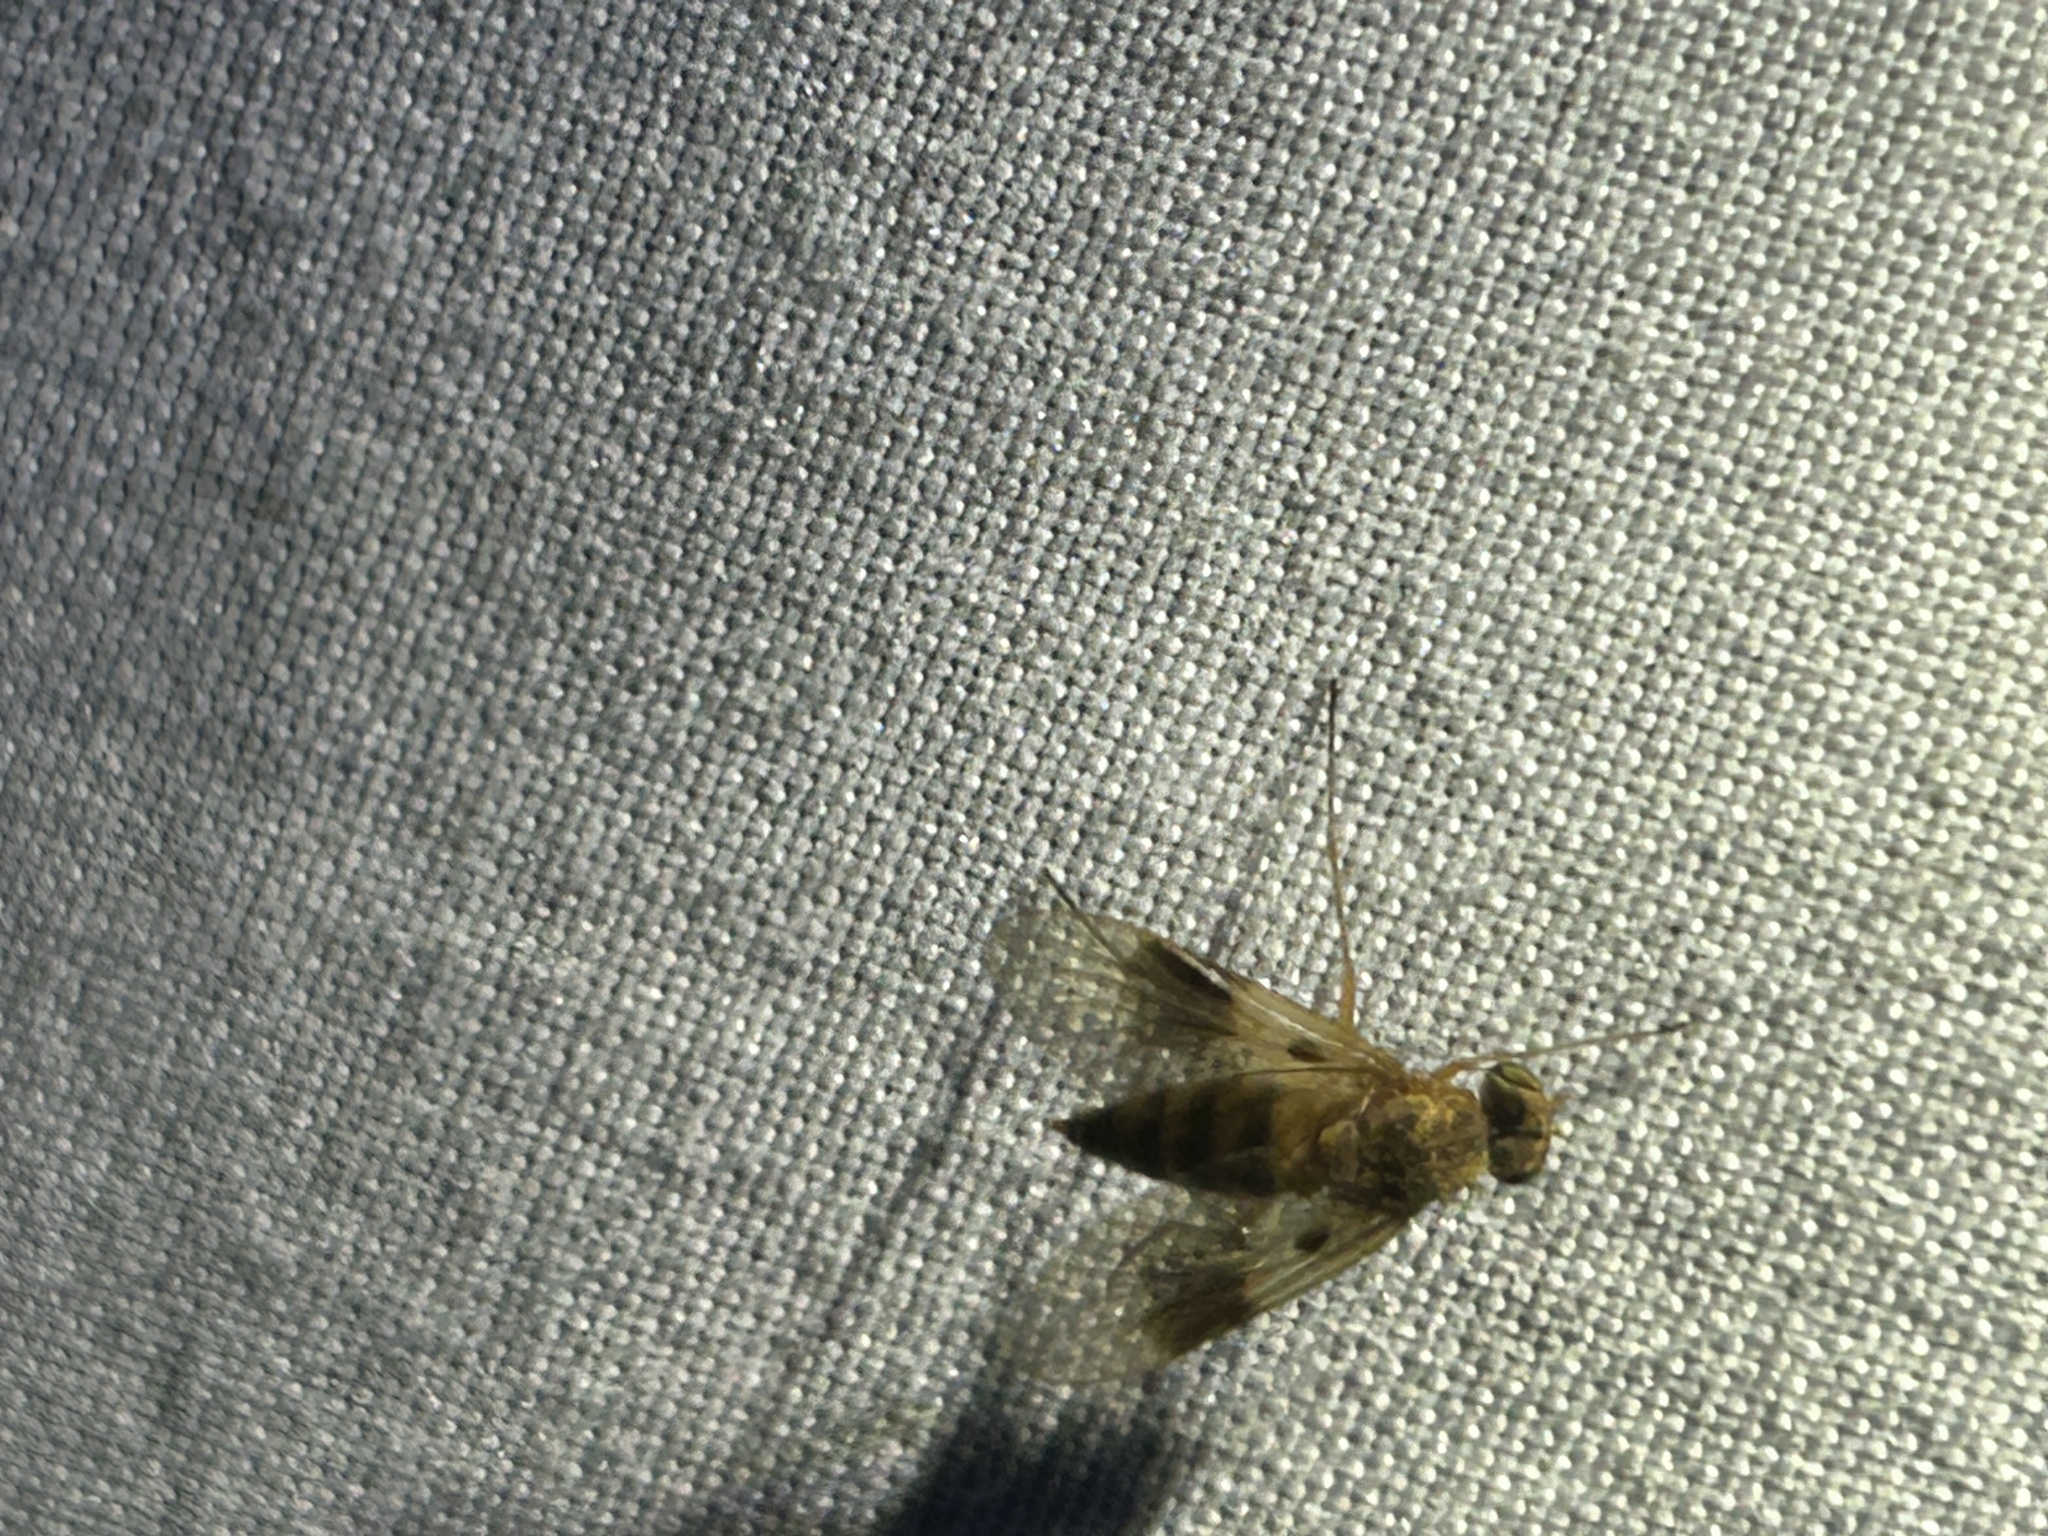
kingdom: Animalia
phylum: Arthropoda
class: Insecta
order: Diptera
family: Rhagionidae
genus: Chrysopilus
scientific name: Chrysopilus quadratus
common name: Quadrate snipe fly
